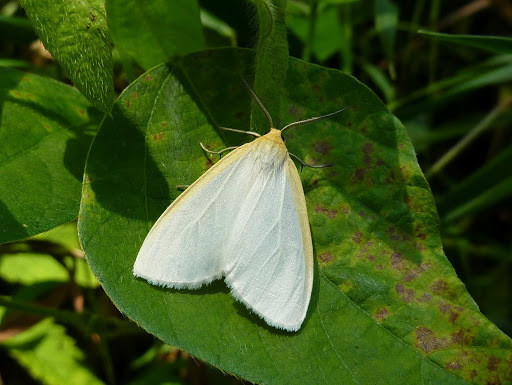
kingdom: Animalia
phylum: Arthropoda
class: Insecta
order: Lepidoptera
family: Erebidae
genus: Cycnia
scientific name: Cycnia tenera
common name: Delicate cycnia moth
